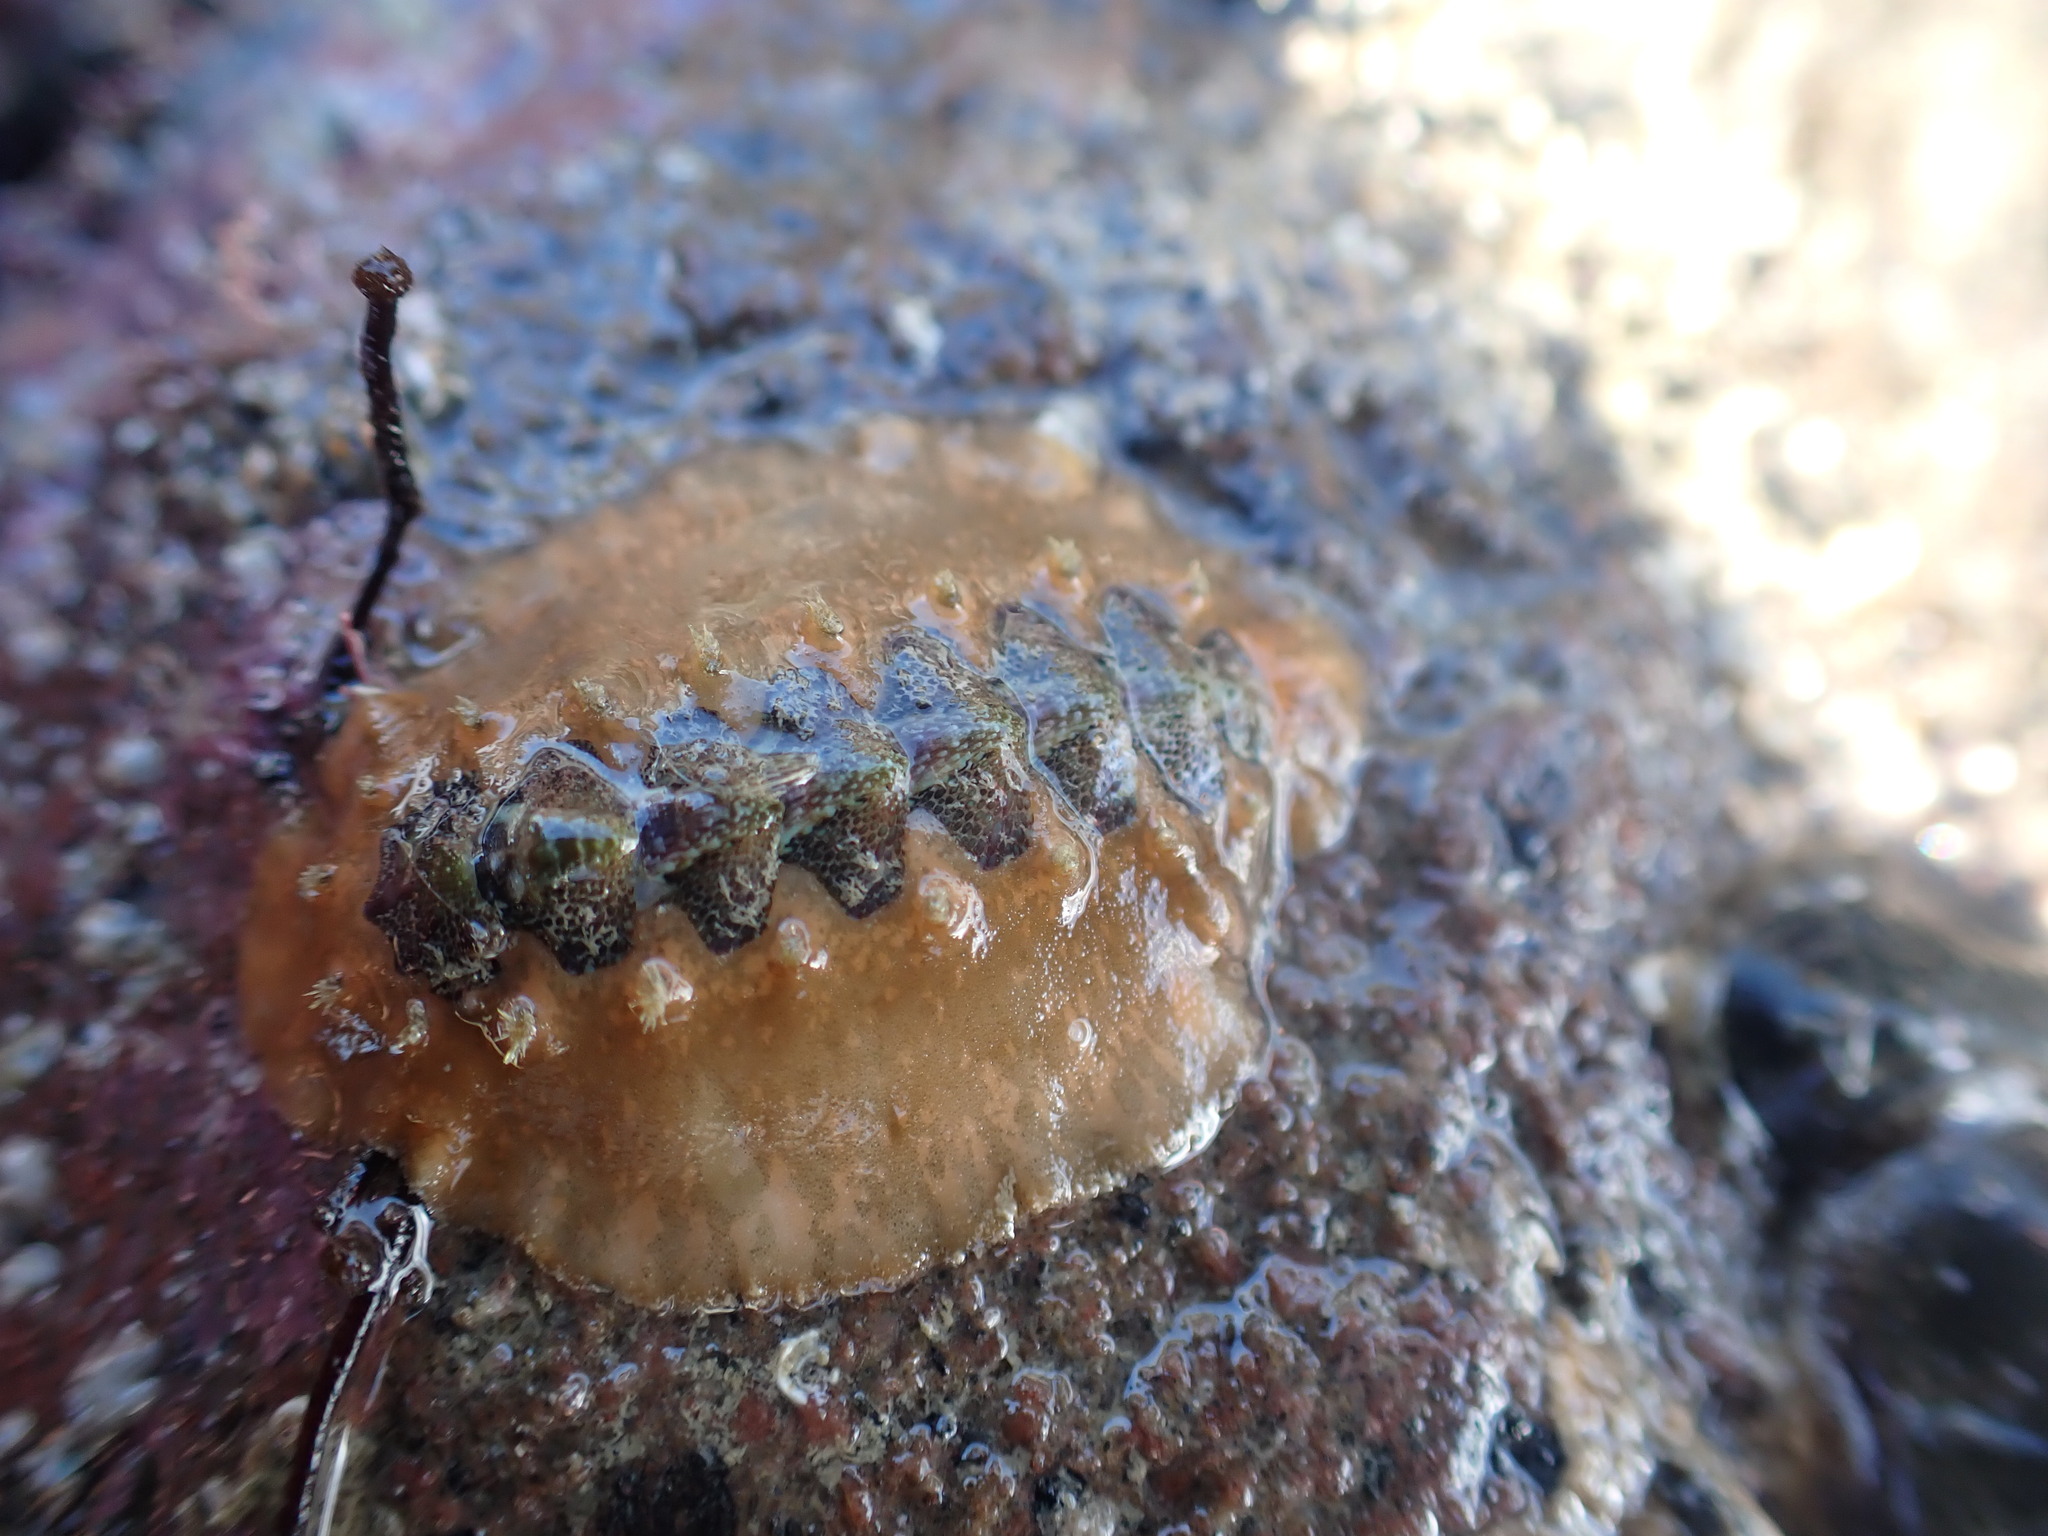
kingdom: Animalia
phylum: Mollusca
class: Polyplacophora
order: Chitonida
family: Acanthochitonidae
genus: Notoplax
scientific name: Notoplax violacea
